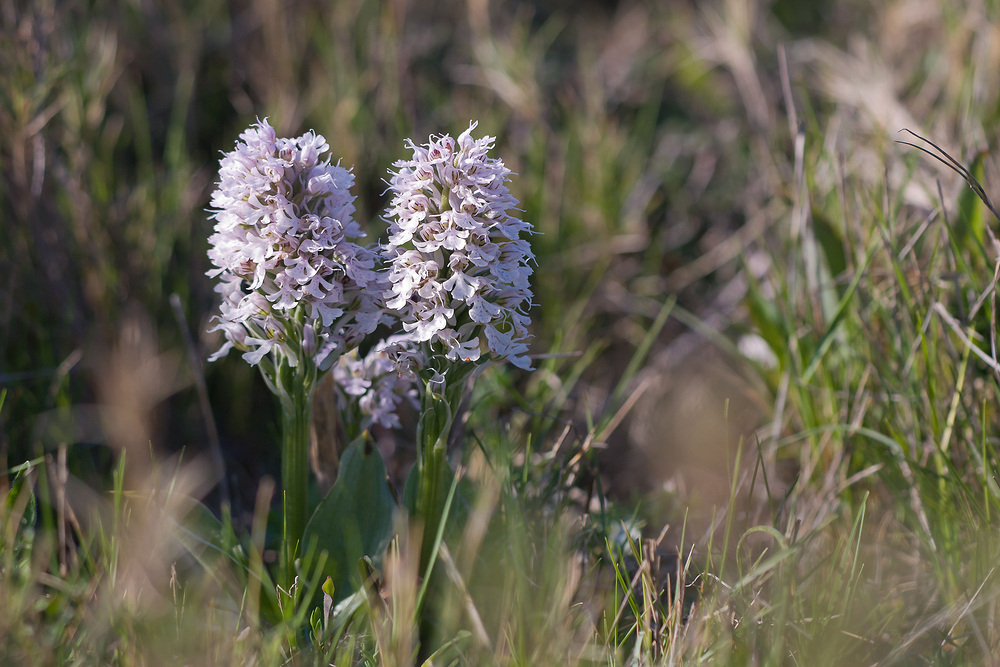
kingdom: Plantae
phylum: Tracheophyta
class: Liliopsida
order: Asparagales
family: Orchidaceae
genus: Neotinea
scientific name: Neotinea conica
